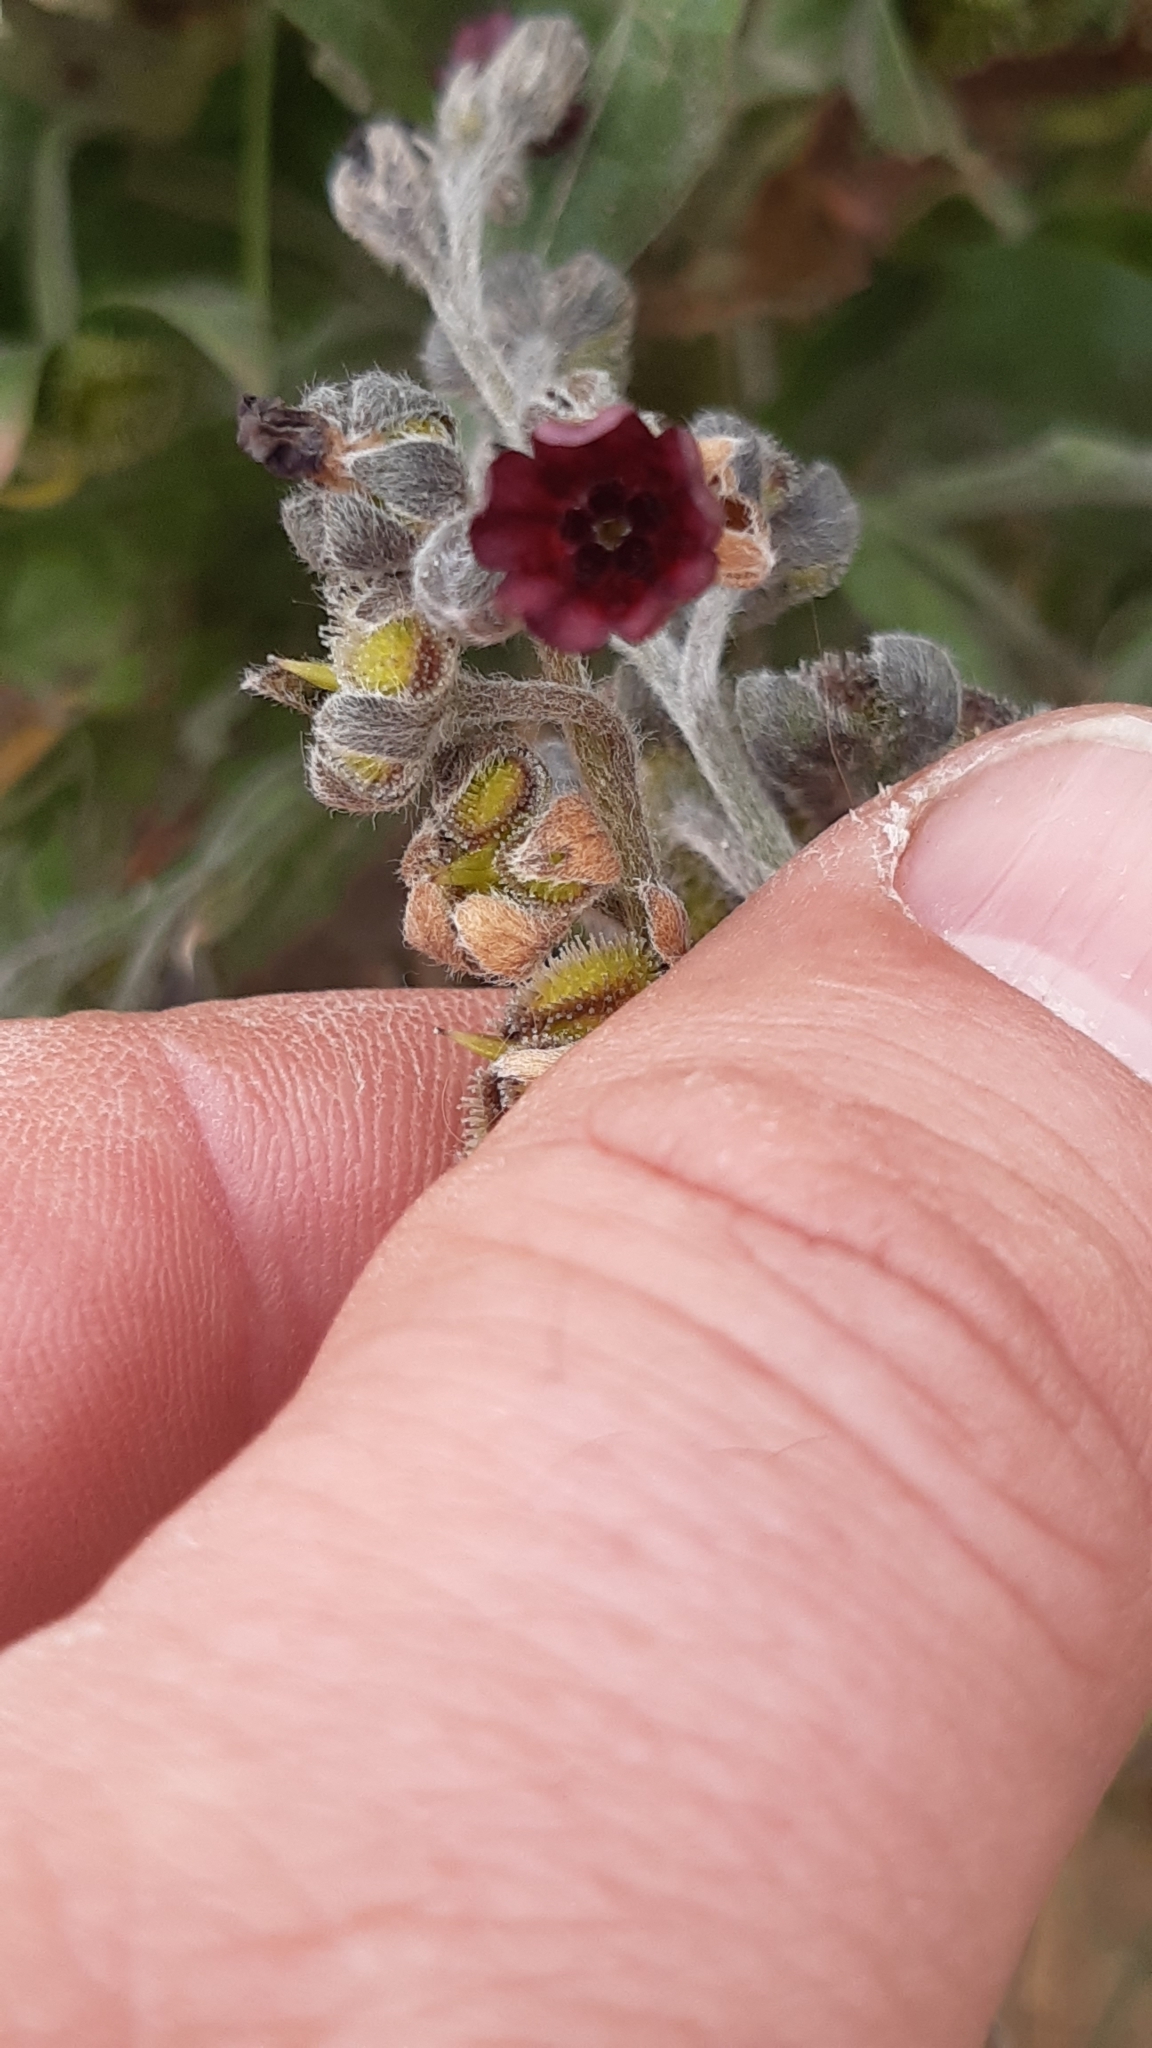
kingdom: Plantae
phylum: Tracheophyta
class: Magnoliopsida
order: Boraginales
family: Boraginaceae
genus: Cynoglossum
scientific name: Cynoglossum officinale
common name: Hound's-tongue
